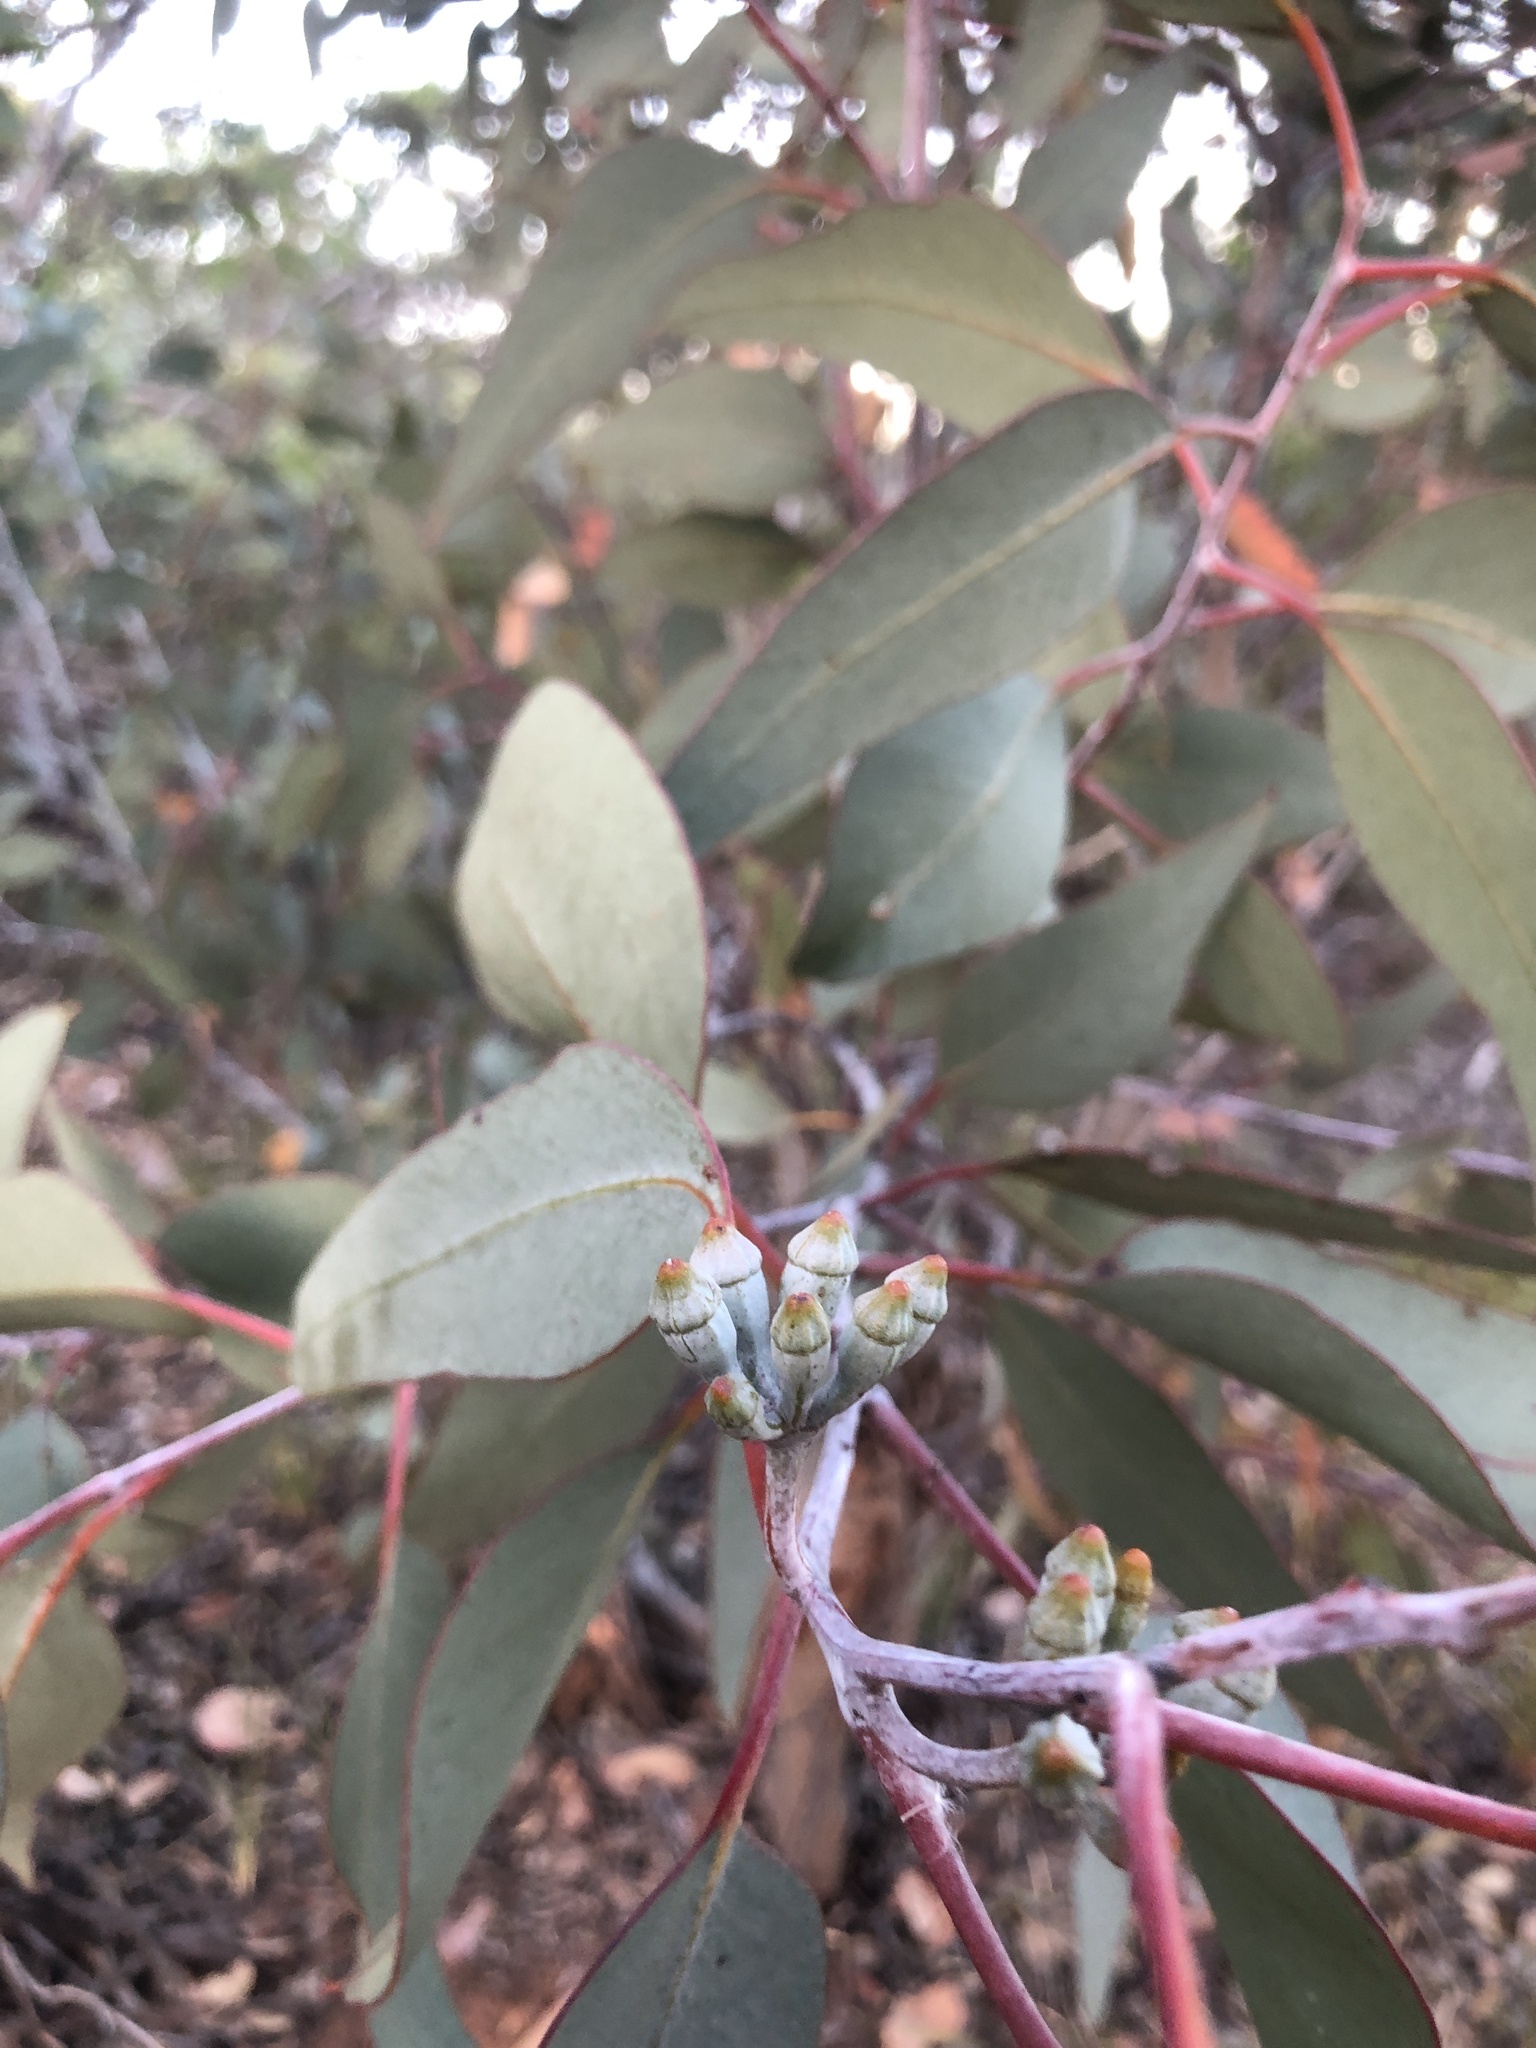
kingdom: Plantae
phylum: Tracheophyta
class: Magnoliopsida
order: Myrtales
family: Myrtaceae
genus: Eucalyptus
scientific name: Eucalyptus cretata
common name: Darke peak mallee
